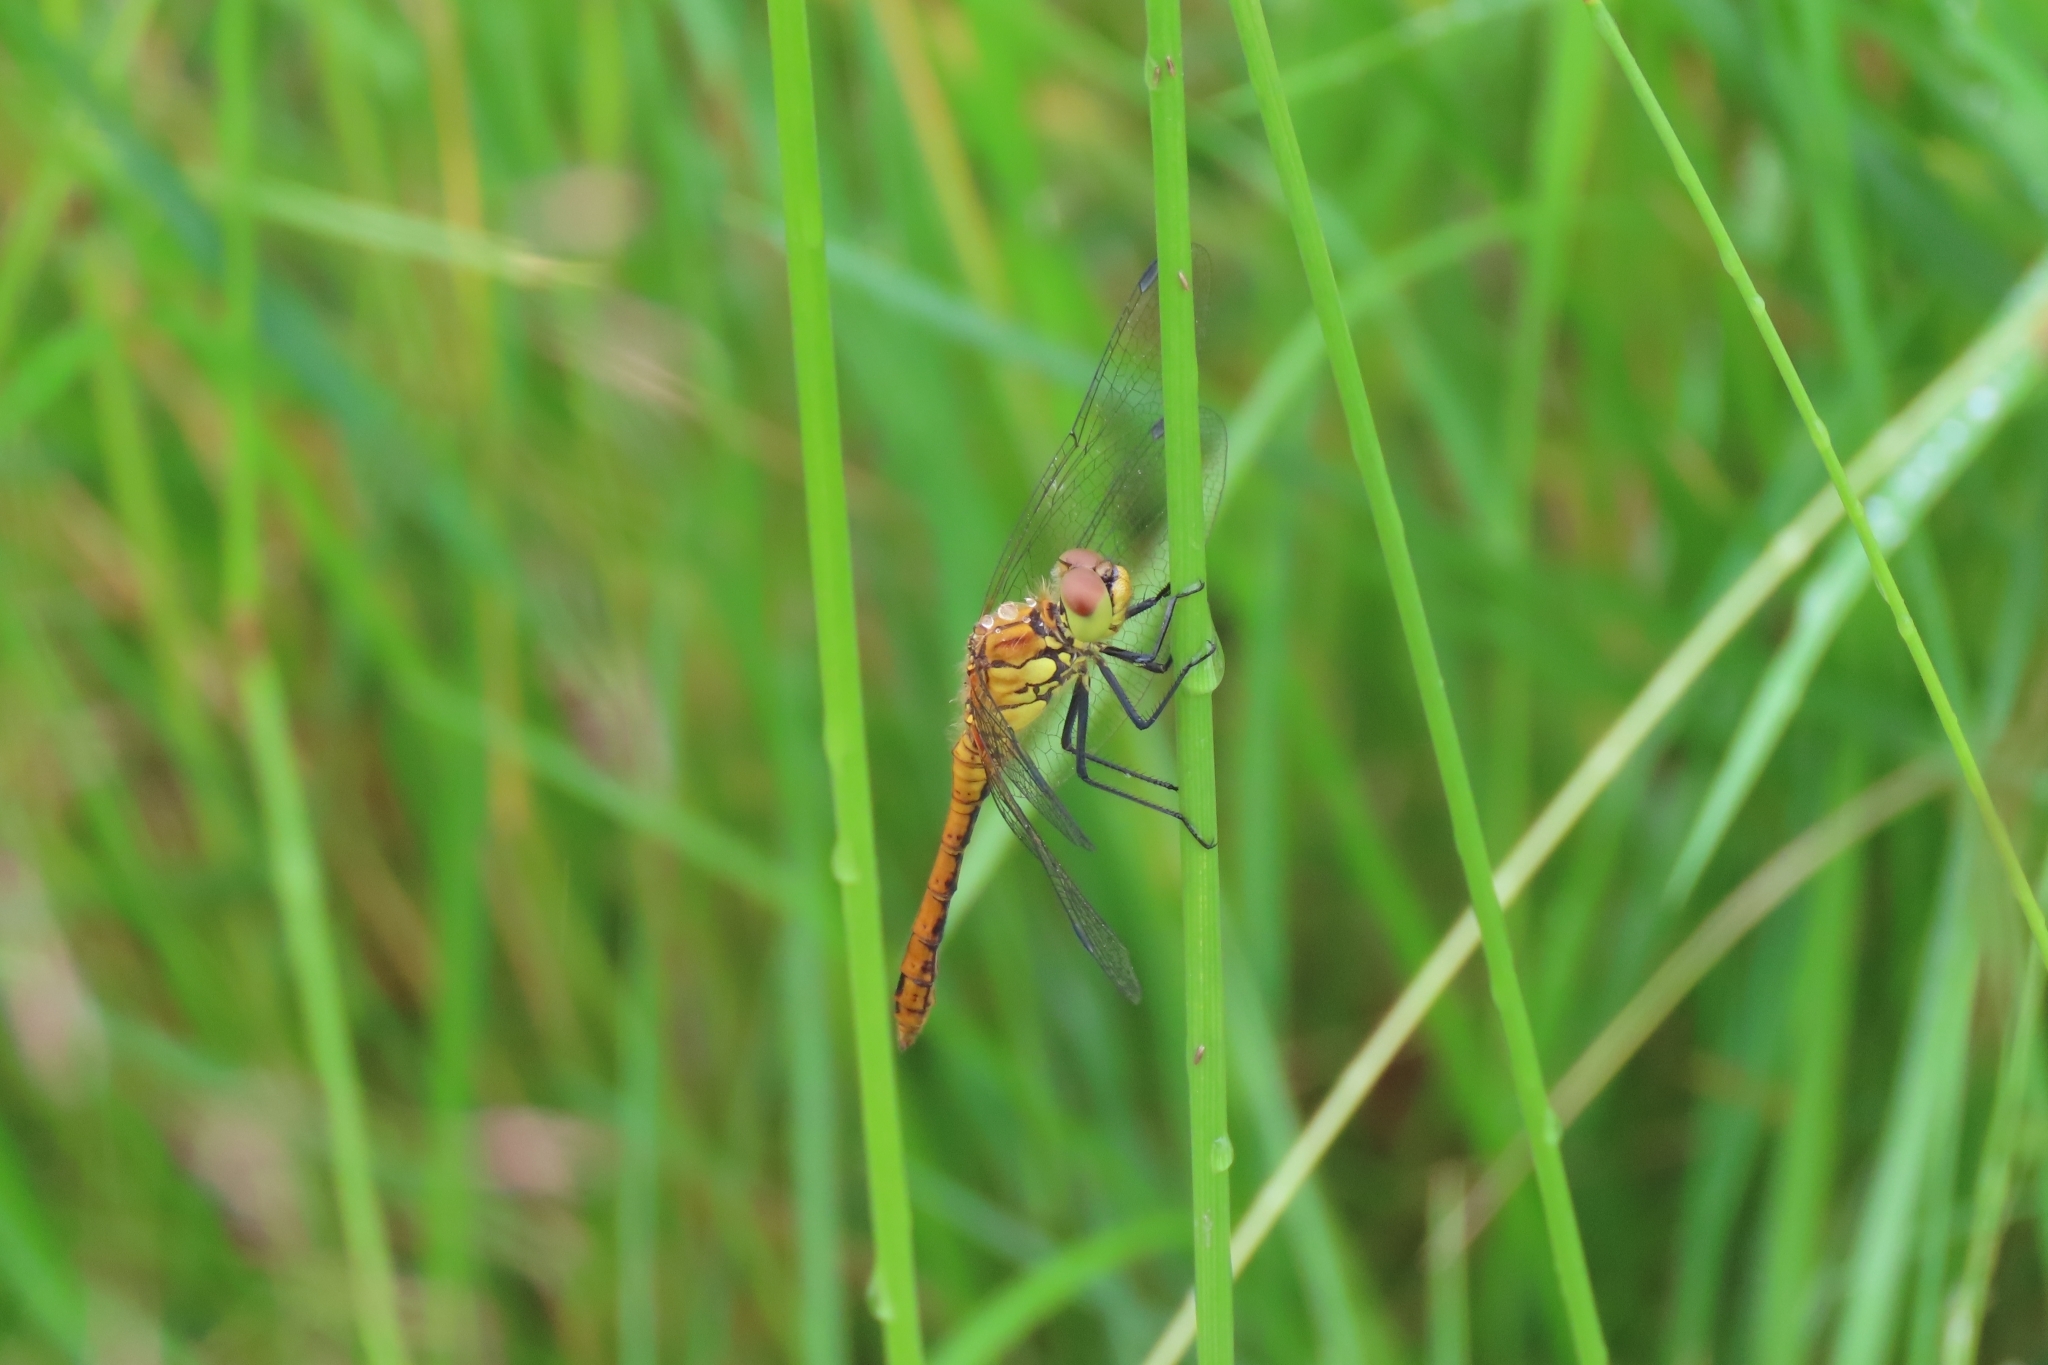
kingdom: Animalia
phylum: Arthropoda
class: Insecta
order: Odonata
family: Libellulidae
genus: Sympetrum
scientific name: Sympetrum sanguineum
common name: Ruddy darter
